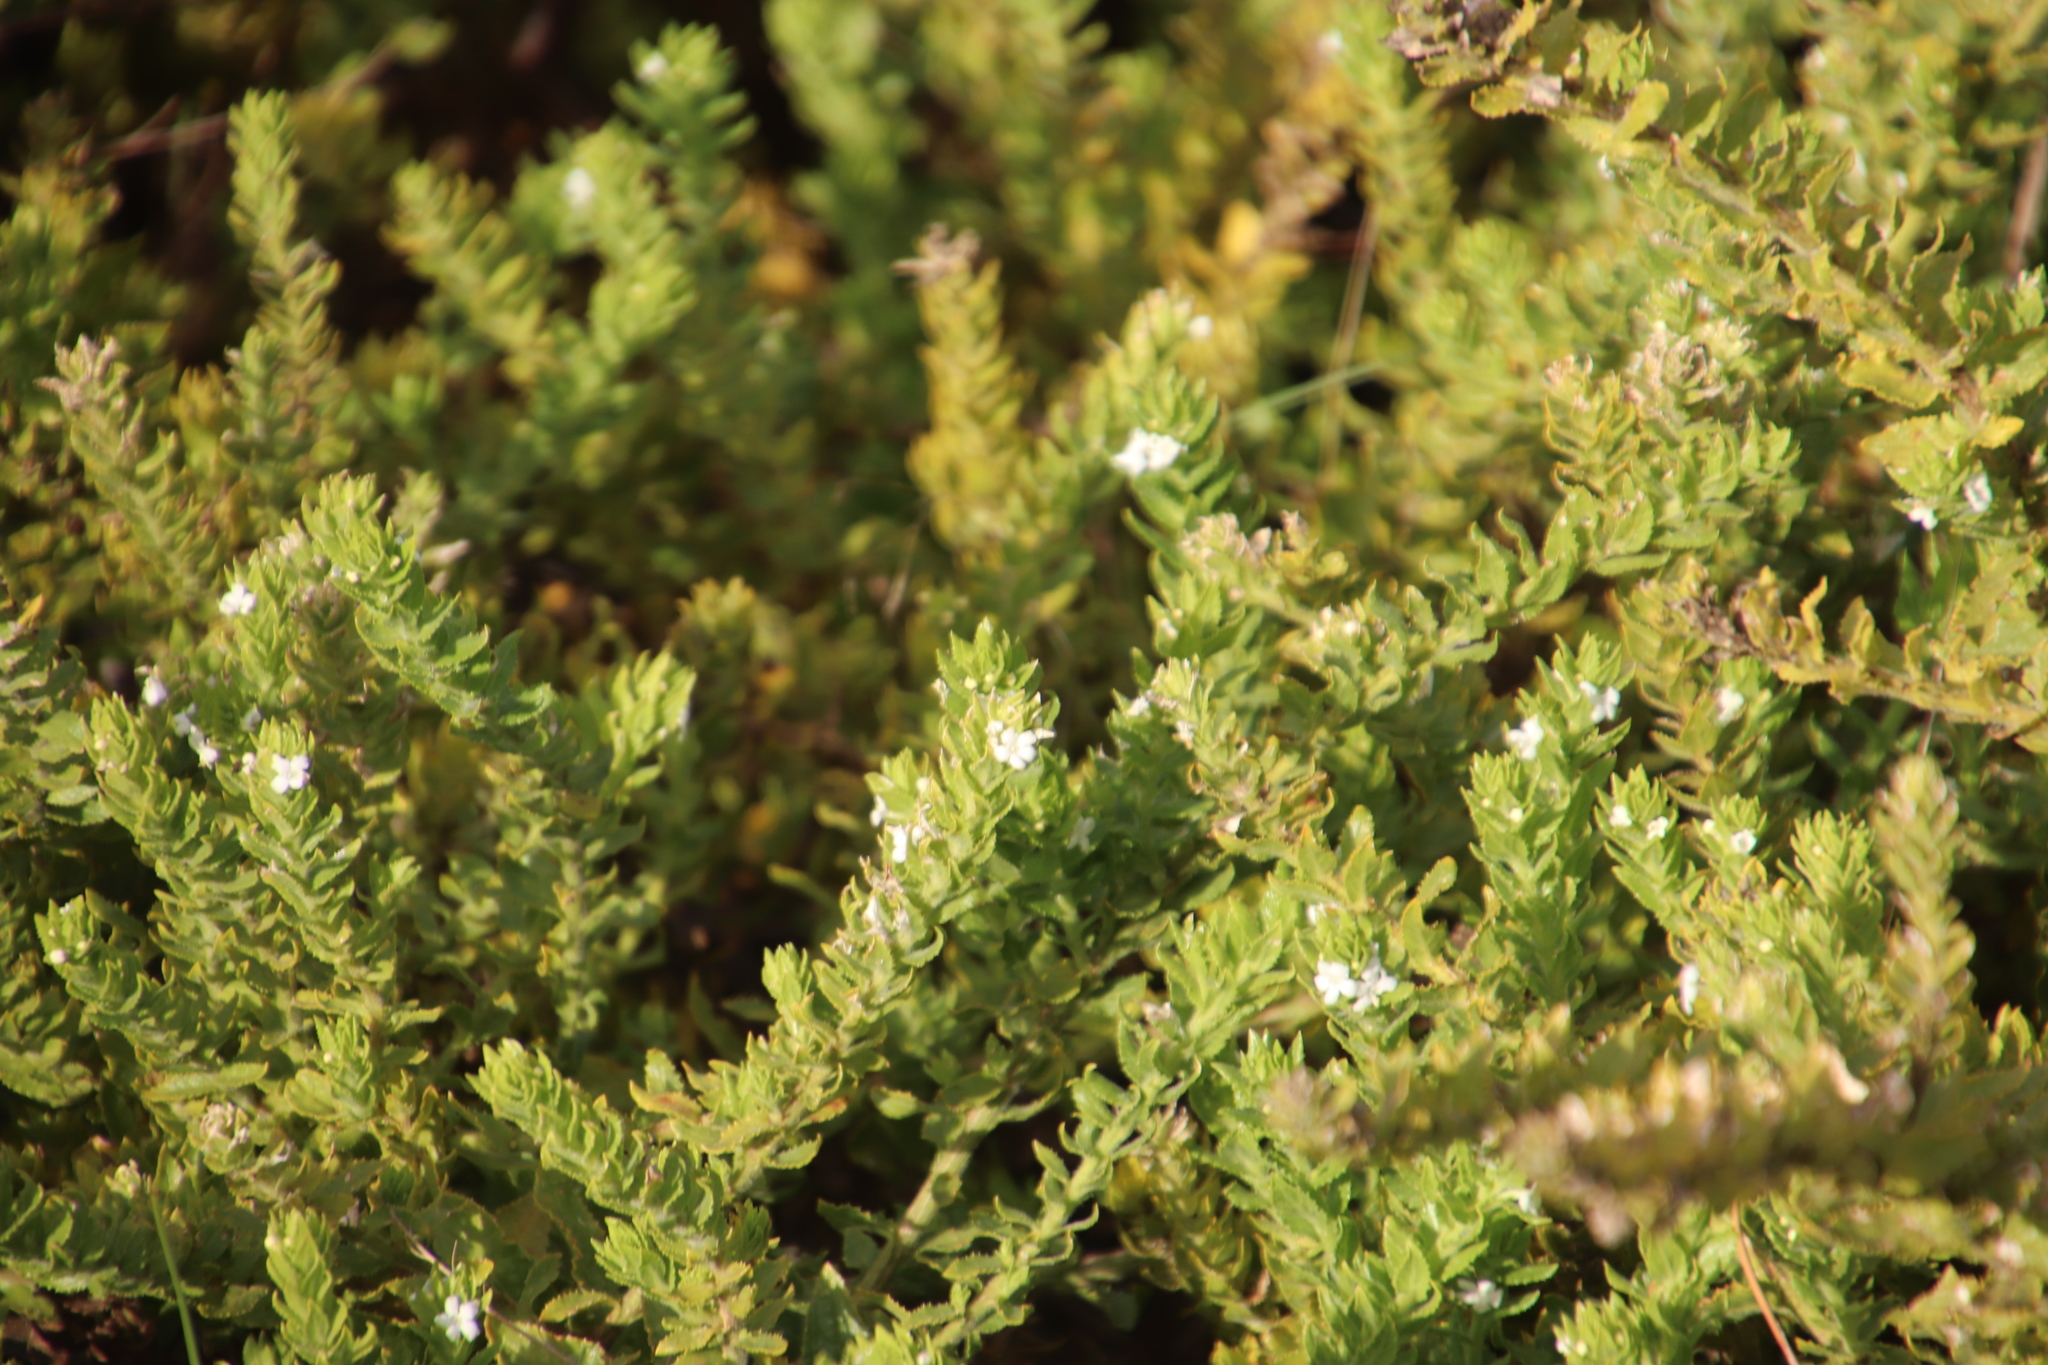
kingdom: Plantae
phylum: Tracheophyta
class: Magnoliopsida
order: Lamiales
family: Scrophulariaceae
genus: Oftia
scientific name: Oftia africana
